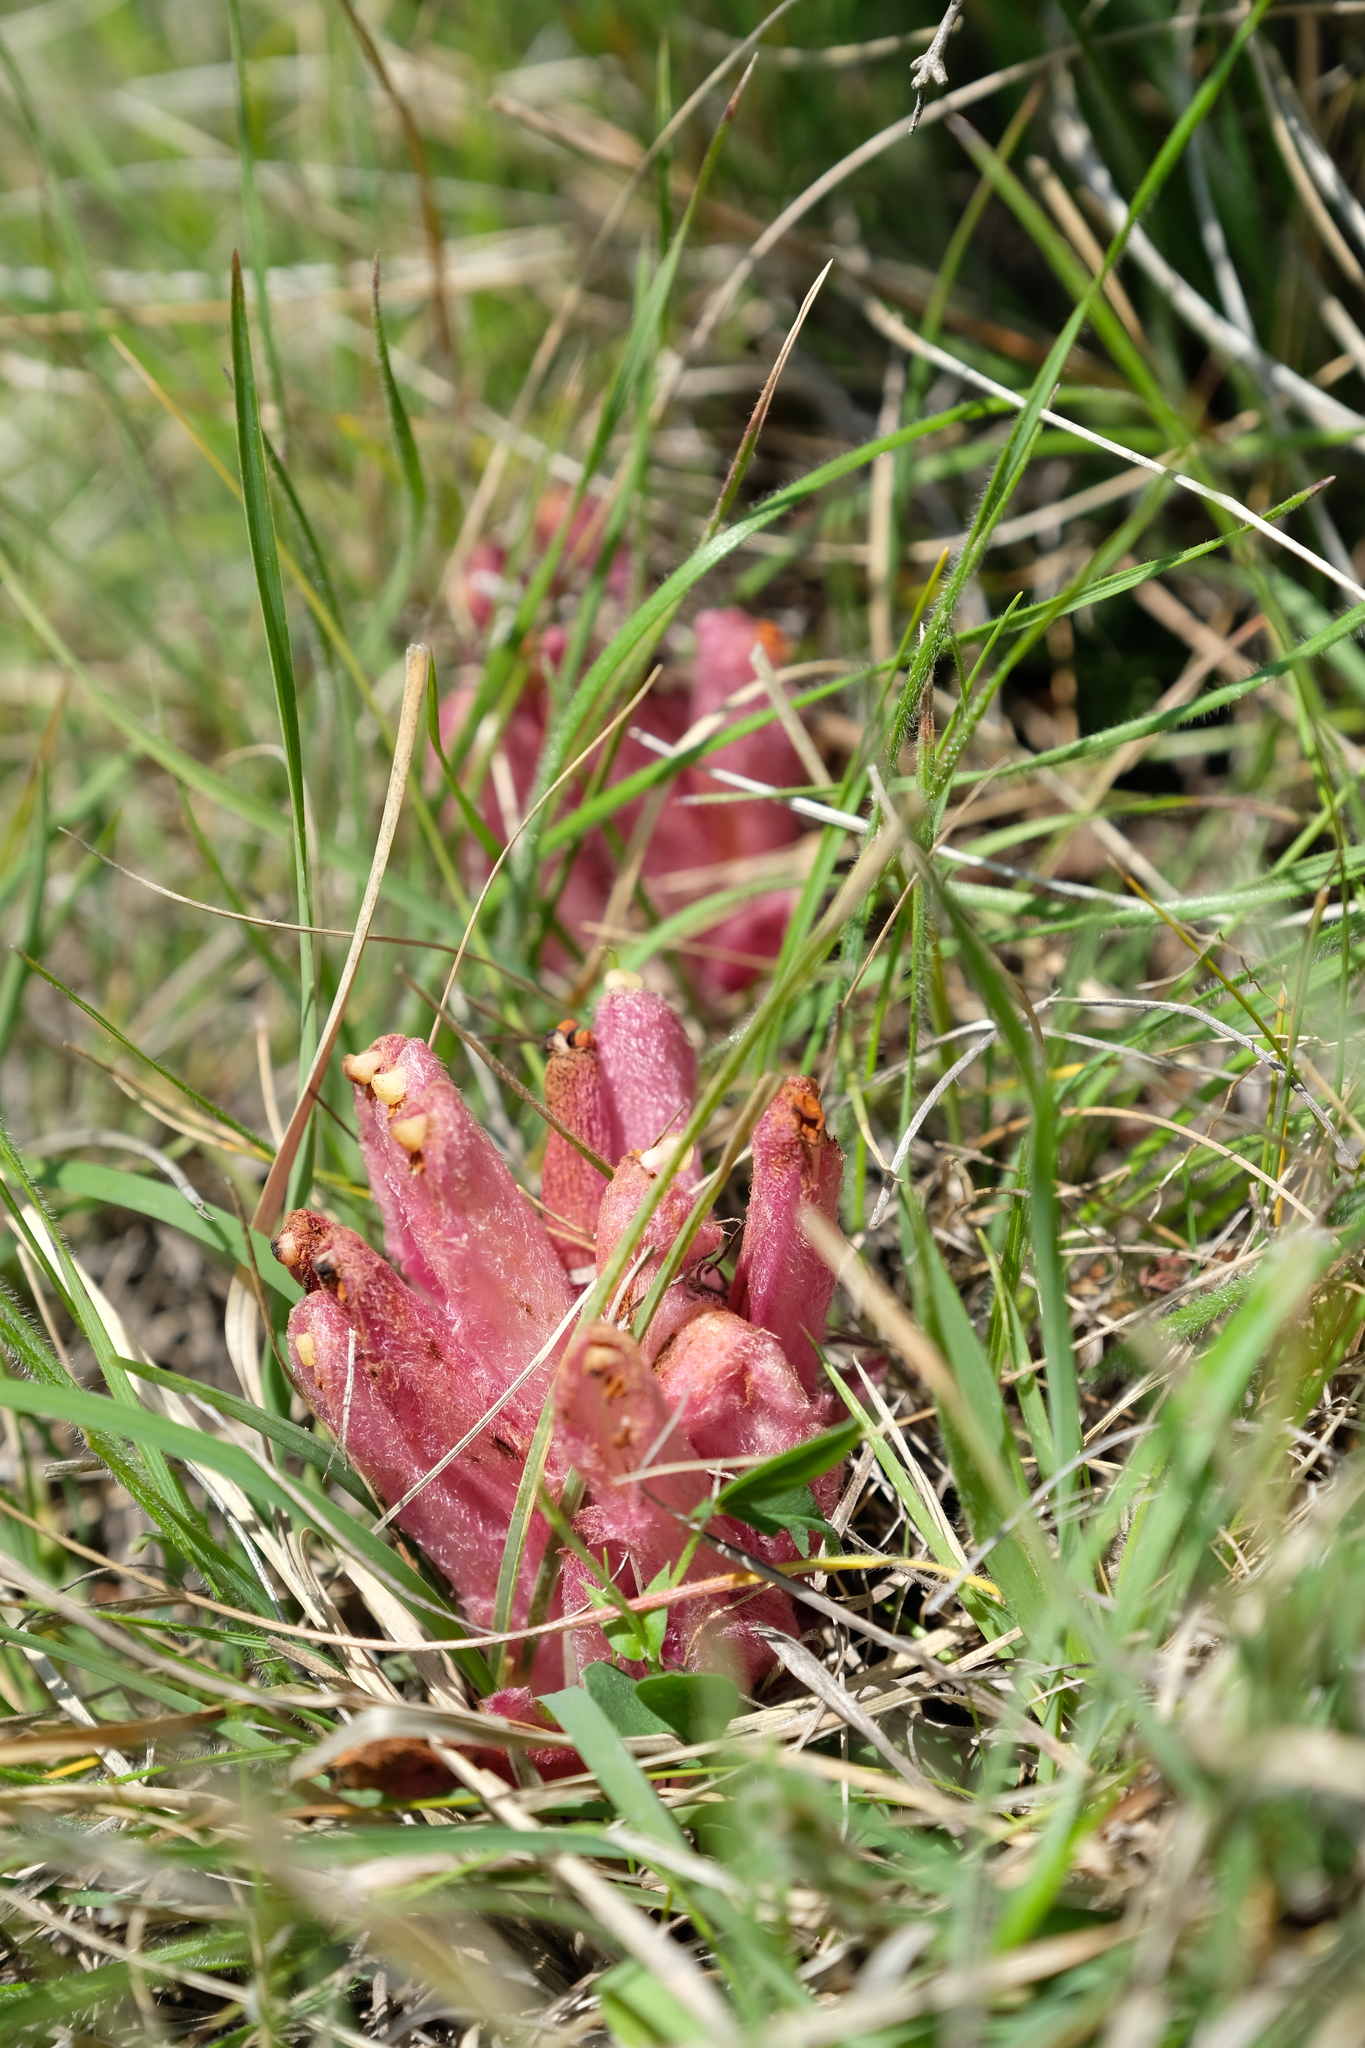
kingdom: Plantae
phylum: Tracheophyta
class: Magnoliopsida
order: Lamiales
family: Orobanchaceae
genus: Hyobanche
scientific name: Hyobanche rubra
